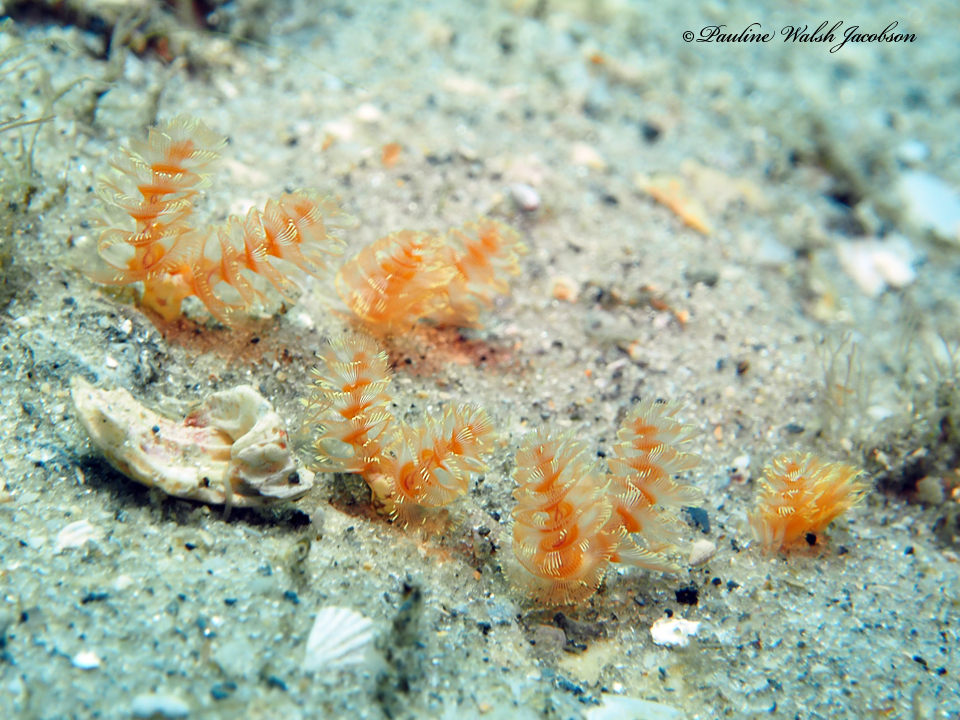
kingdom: Animalia
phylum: Phoronida
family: Phoronidae
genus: Phoronopsis
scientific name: Phoronopsis californica
